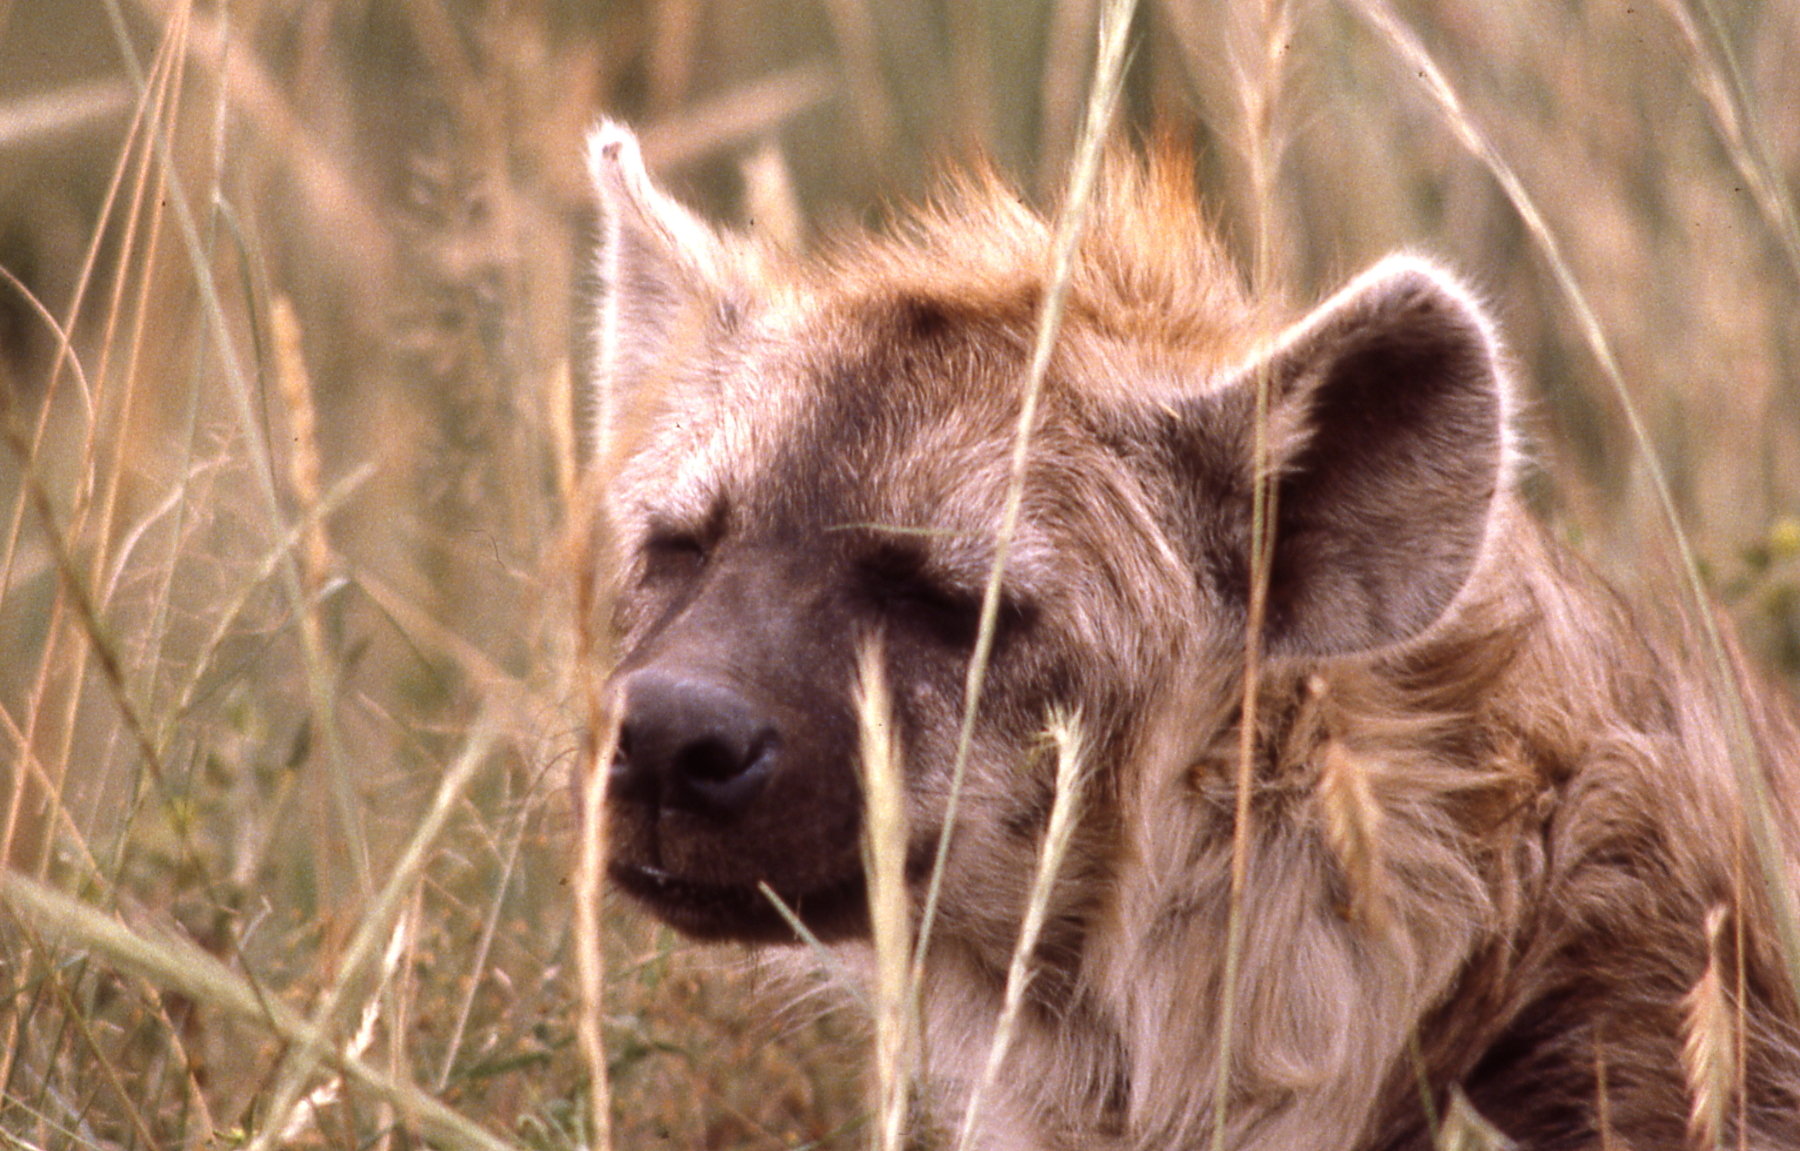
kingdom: Animalia
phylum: Chordata
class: Mammalia
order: Carnivora
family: Hyaenidae
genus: Crocuta
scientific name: Crocuta crocuta
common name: Spotted hyaena
